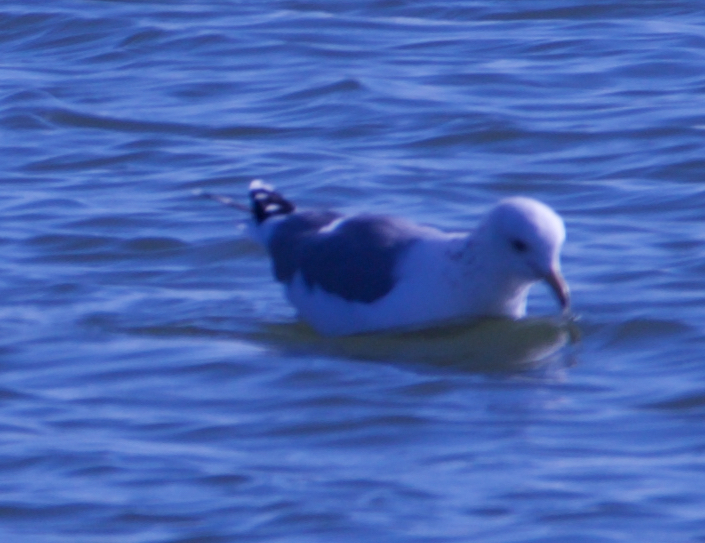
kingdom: Animalia
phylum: Chordata
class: Aves
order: Charadriiformes
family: Laridae
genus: Larus
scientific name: Larus californicus
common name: California gull
